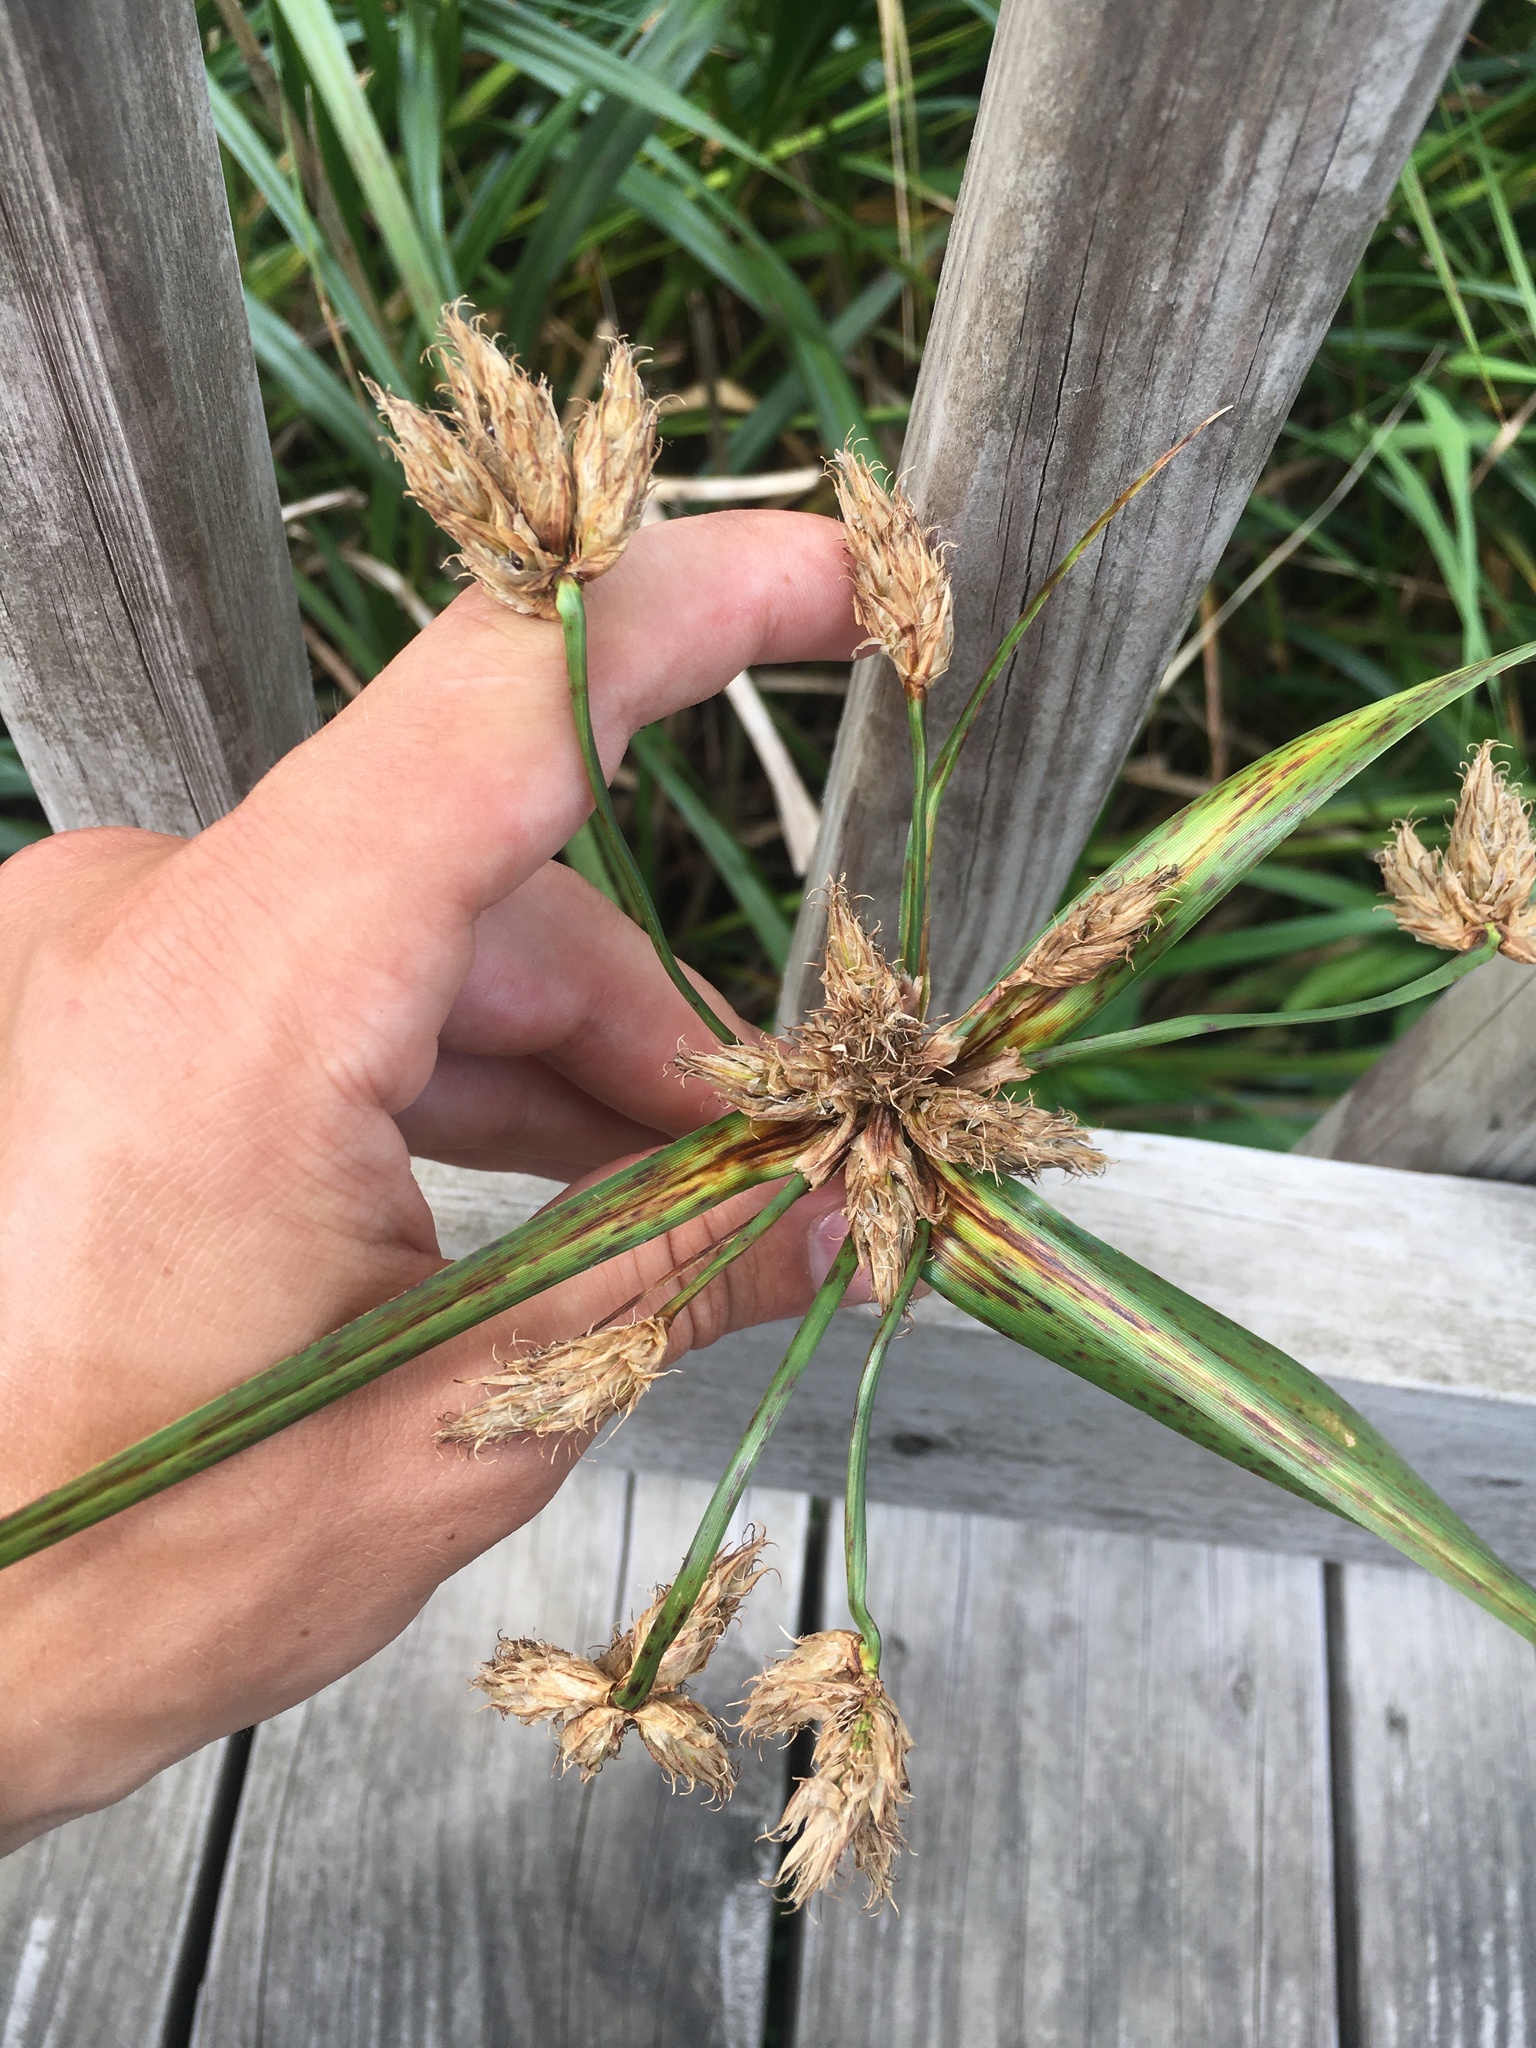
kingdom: Plantae
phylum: Tracheophyta
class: Liliopsida
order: Poales
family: Cyperaceae
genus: Bolboschoenus
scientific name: Bolboschoenus fluviatilis
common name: River bulrush
